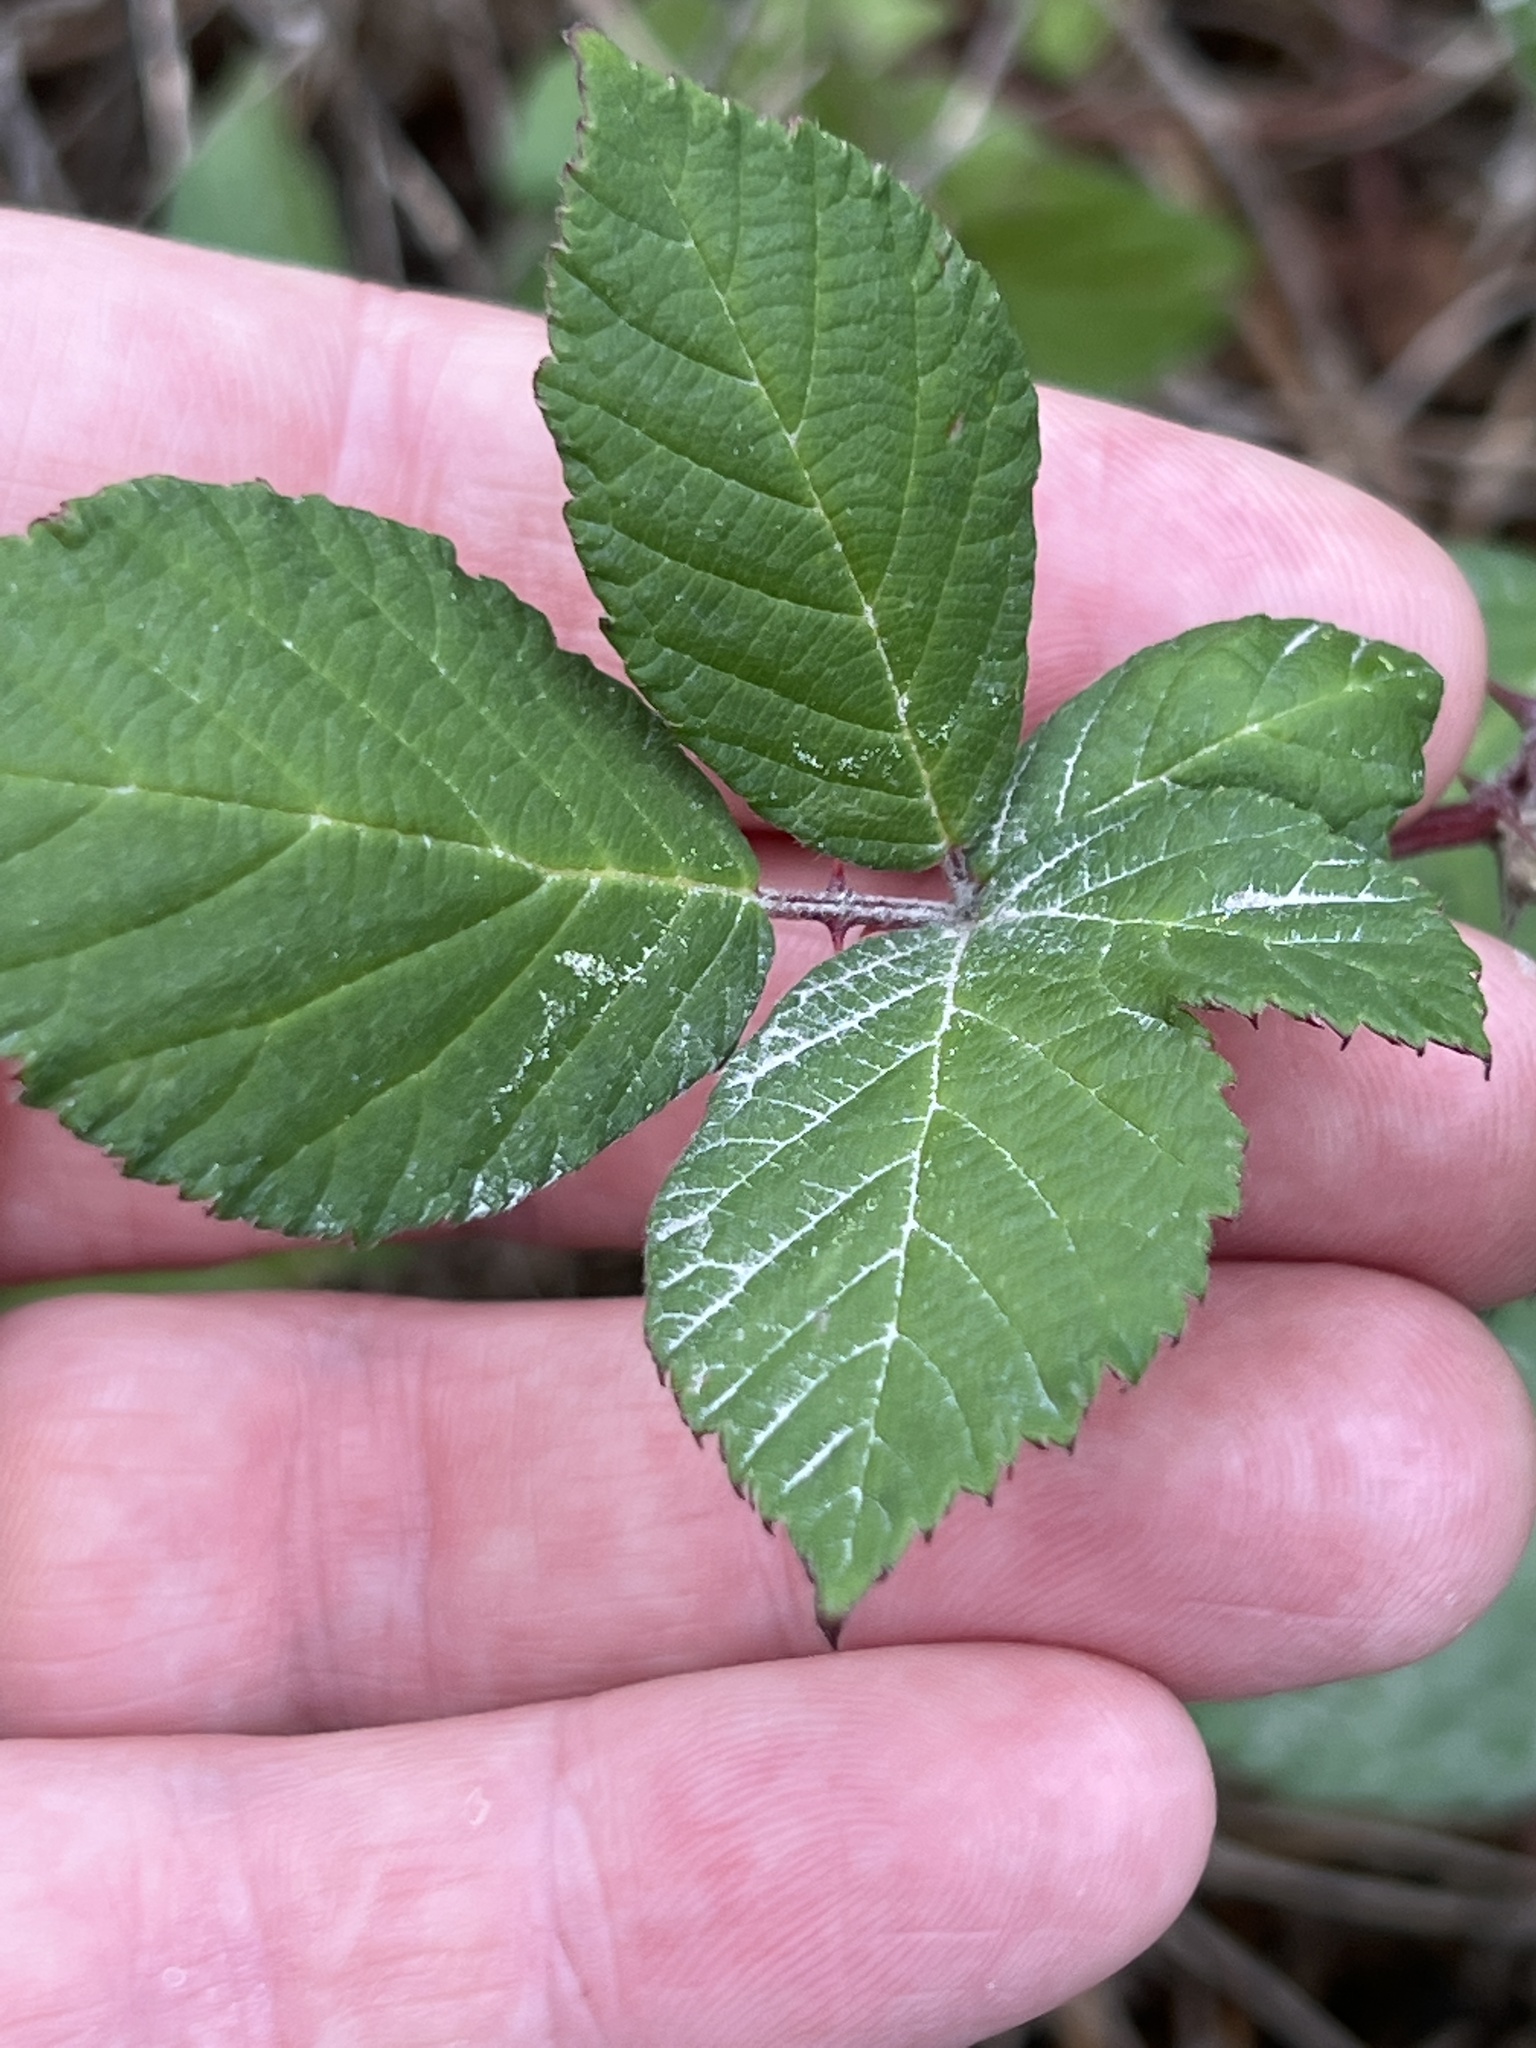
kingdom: Plantae
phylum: Tracheophyta
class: Magnoliopsida
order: Rosales
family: Rosaceae
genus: Rubus
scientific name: Rubus bifrons
